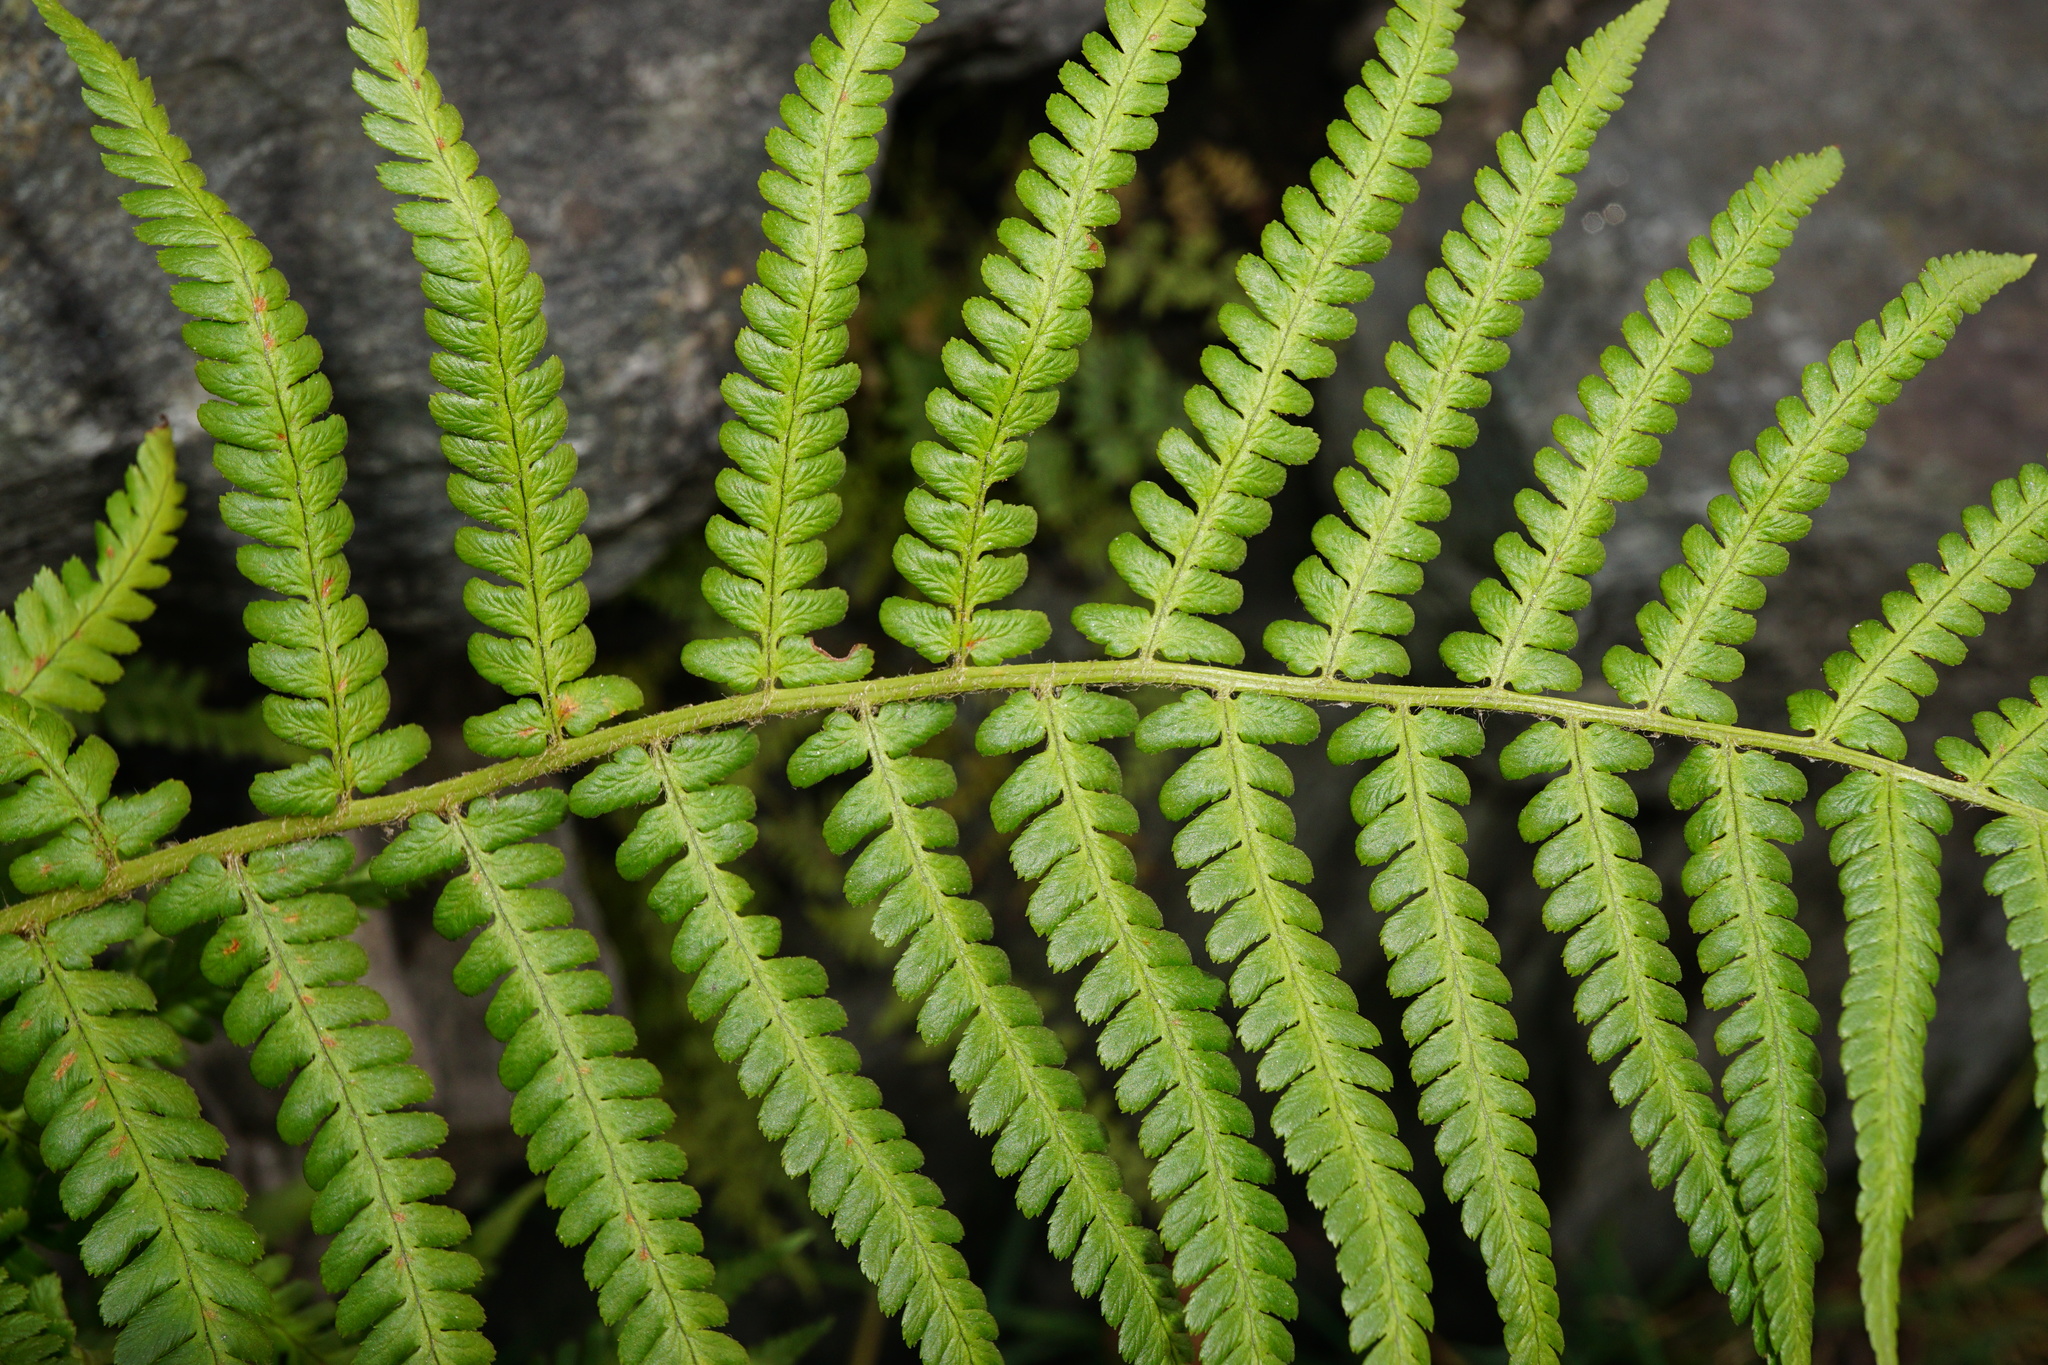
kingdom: Plantae
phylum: Tracheophyta
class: Polypodiopsida
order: Polypodiales
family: Dryopteridaceae
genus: Dryopteris
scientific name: Dryopteris filix-mas
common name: Male fern
